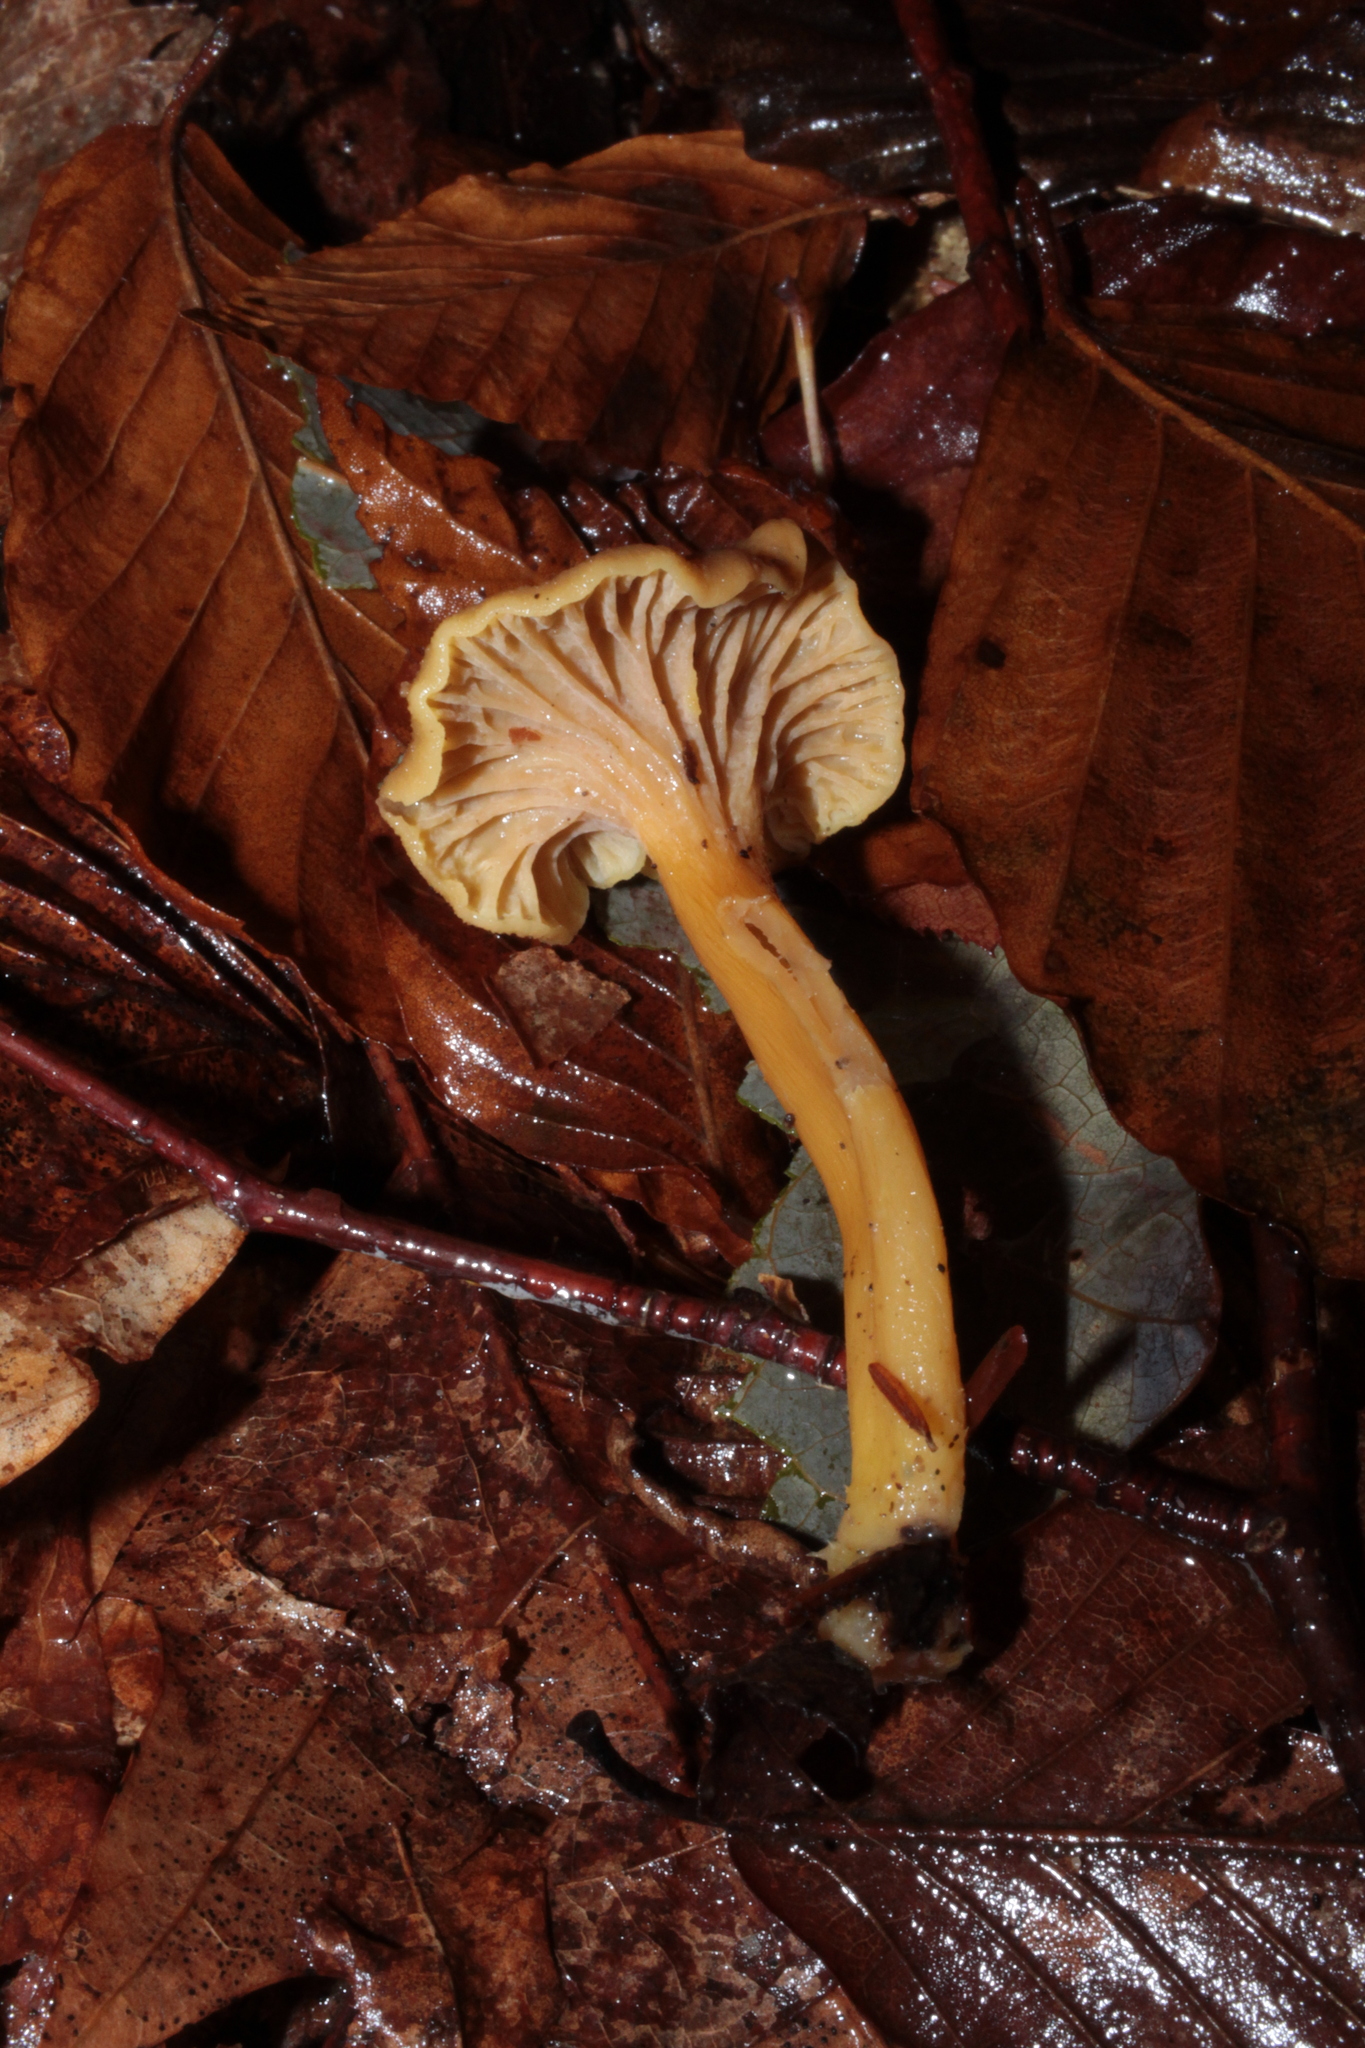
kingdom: Fungi
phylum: Basidiomycota
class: Agaricomycetes
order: Cantharellales
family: Hydnaceae
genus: Craterellus
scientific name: Craterellus tubaeformis
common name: Yellowfoot
